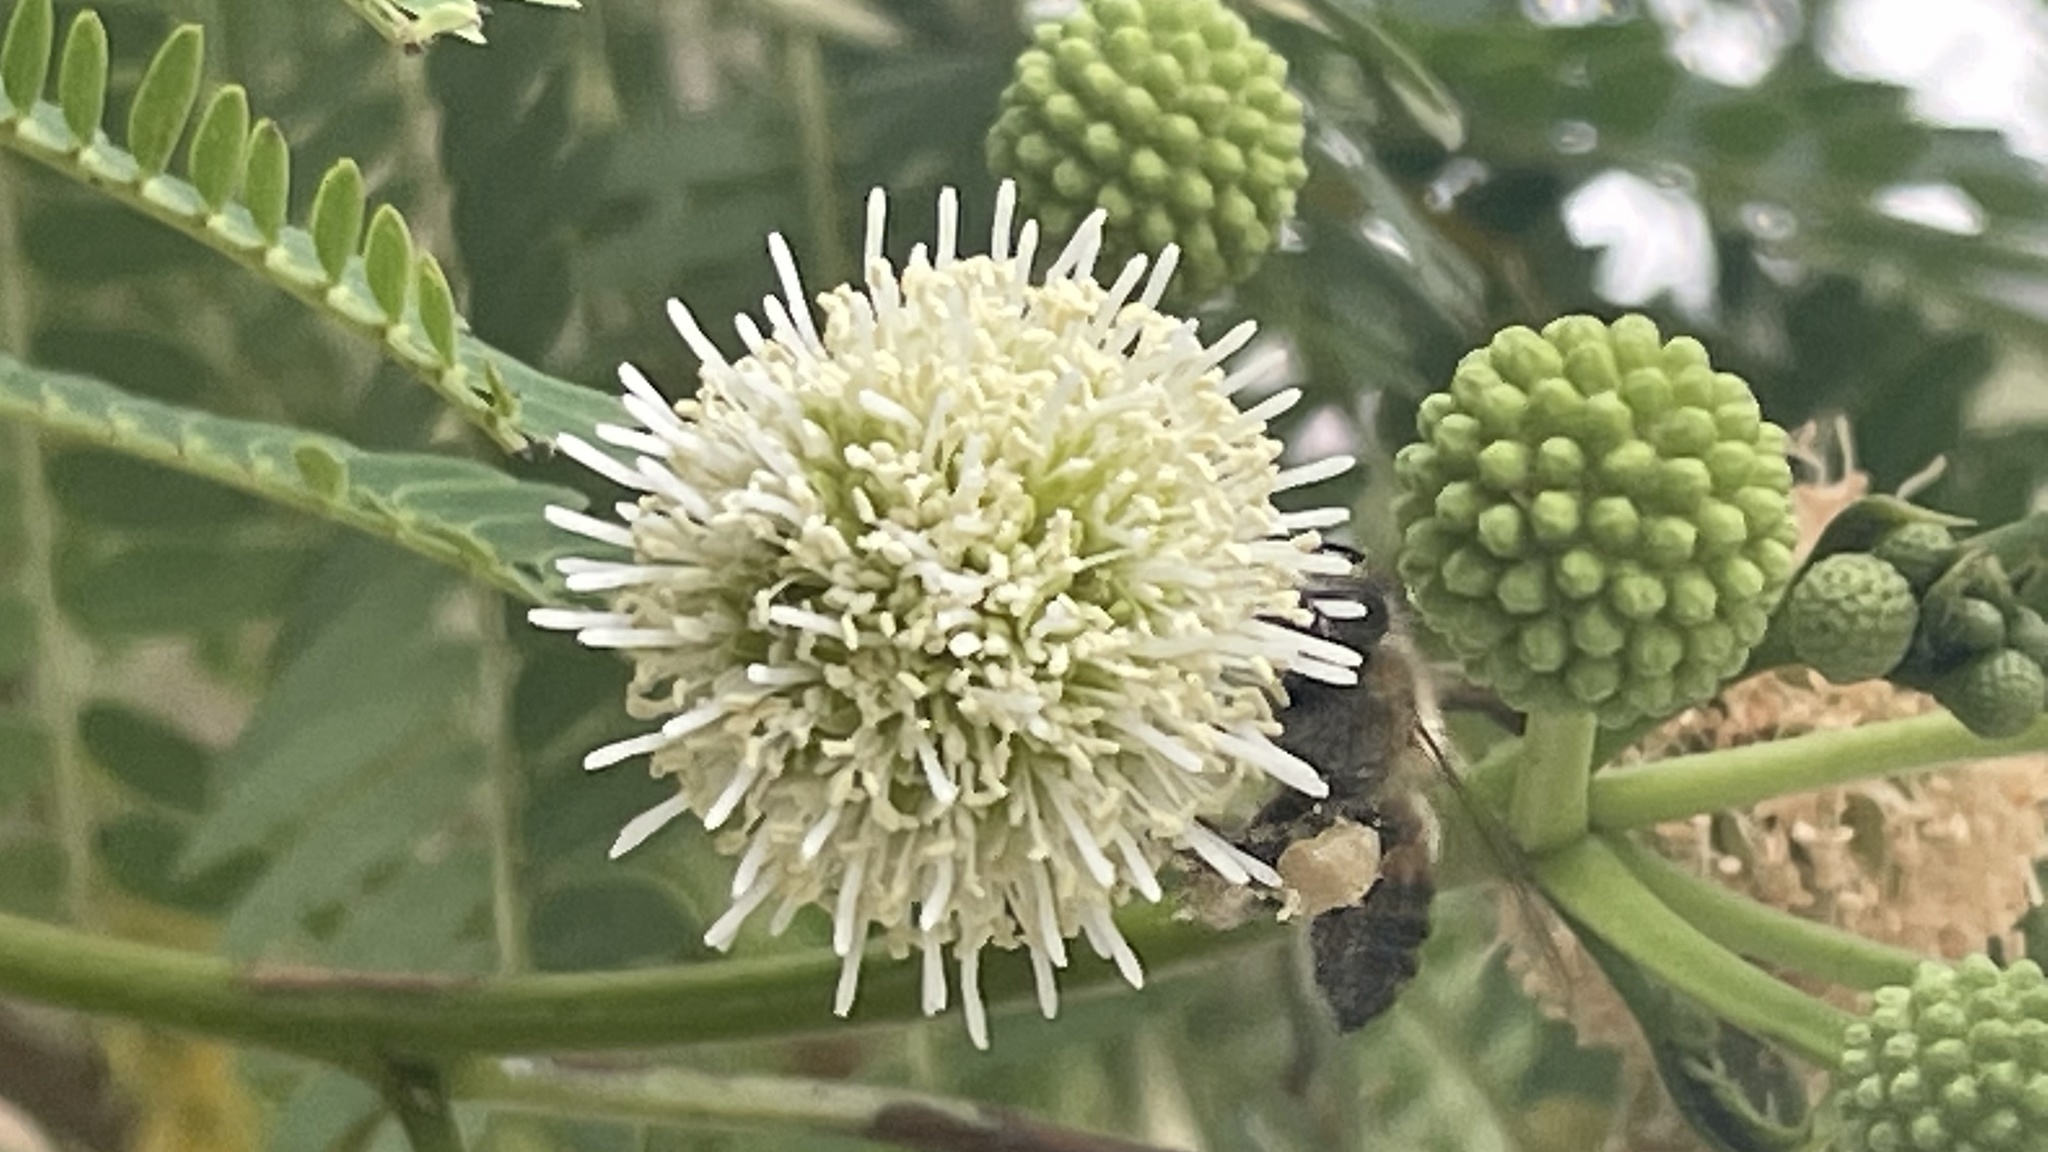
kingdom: Plantae
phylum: Tracheophyta
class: Magnoliopsida
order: Fabales
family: Fabaceae
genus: Leucaena
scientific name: Leucaena leucocephala
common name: White leadtree
